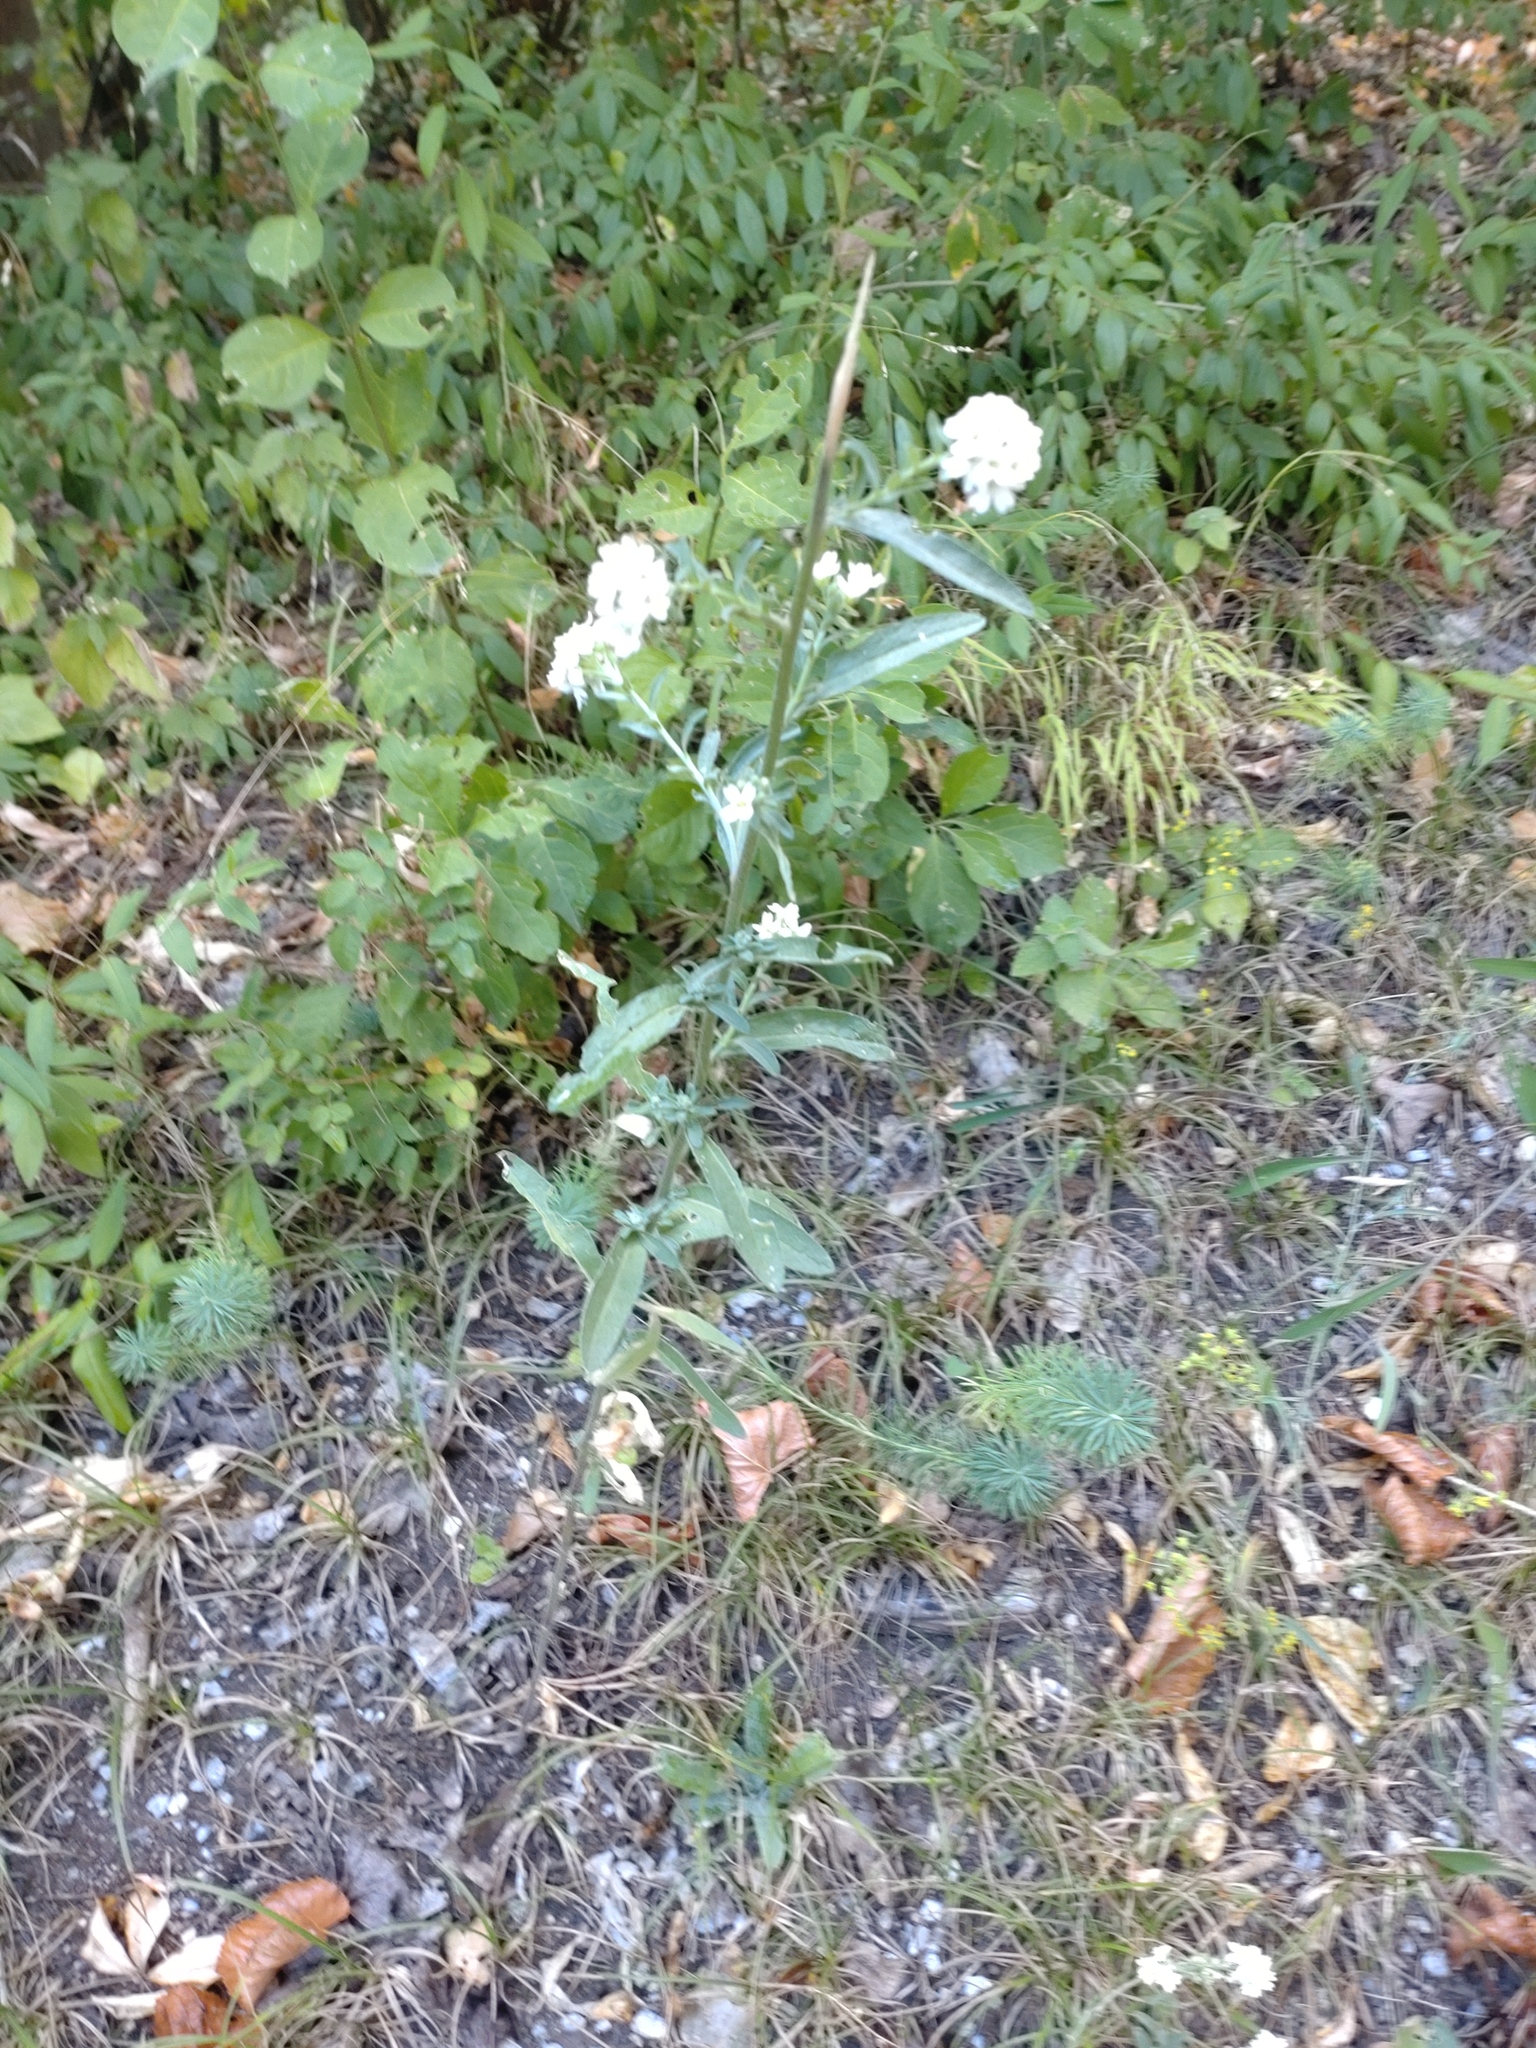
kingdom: Plantae
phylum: Tracheophyta
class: Magnoliopsida
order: Brassicales
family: Brassicaceae
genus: Berteroa
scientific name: Berteroa incana
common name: Hoary alison
